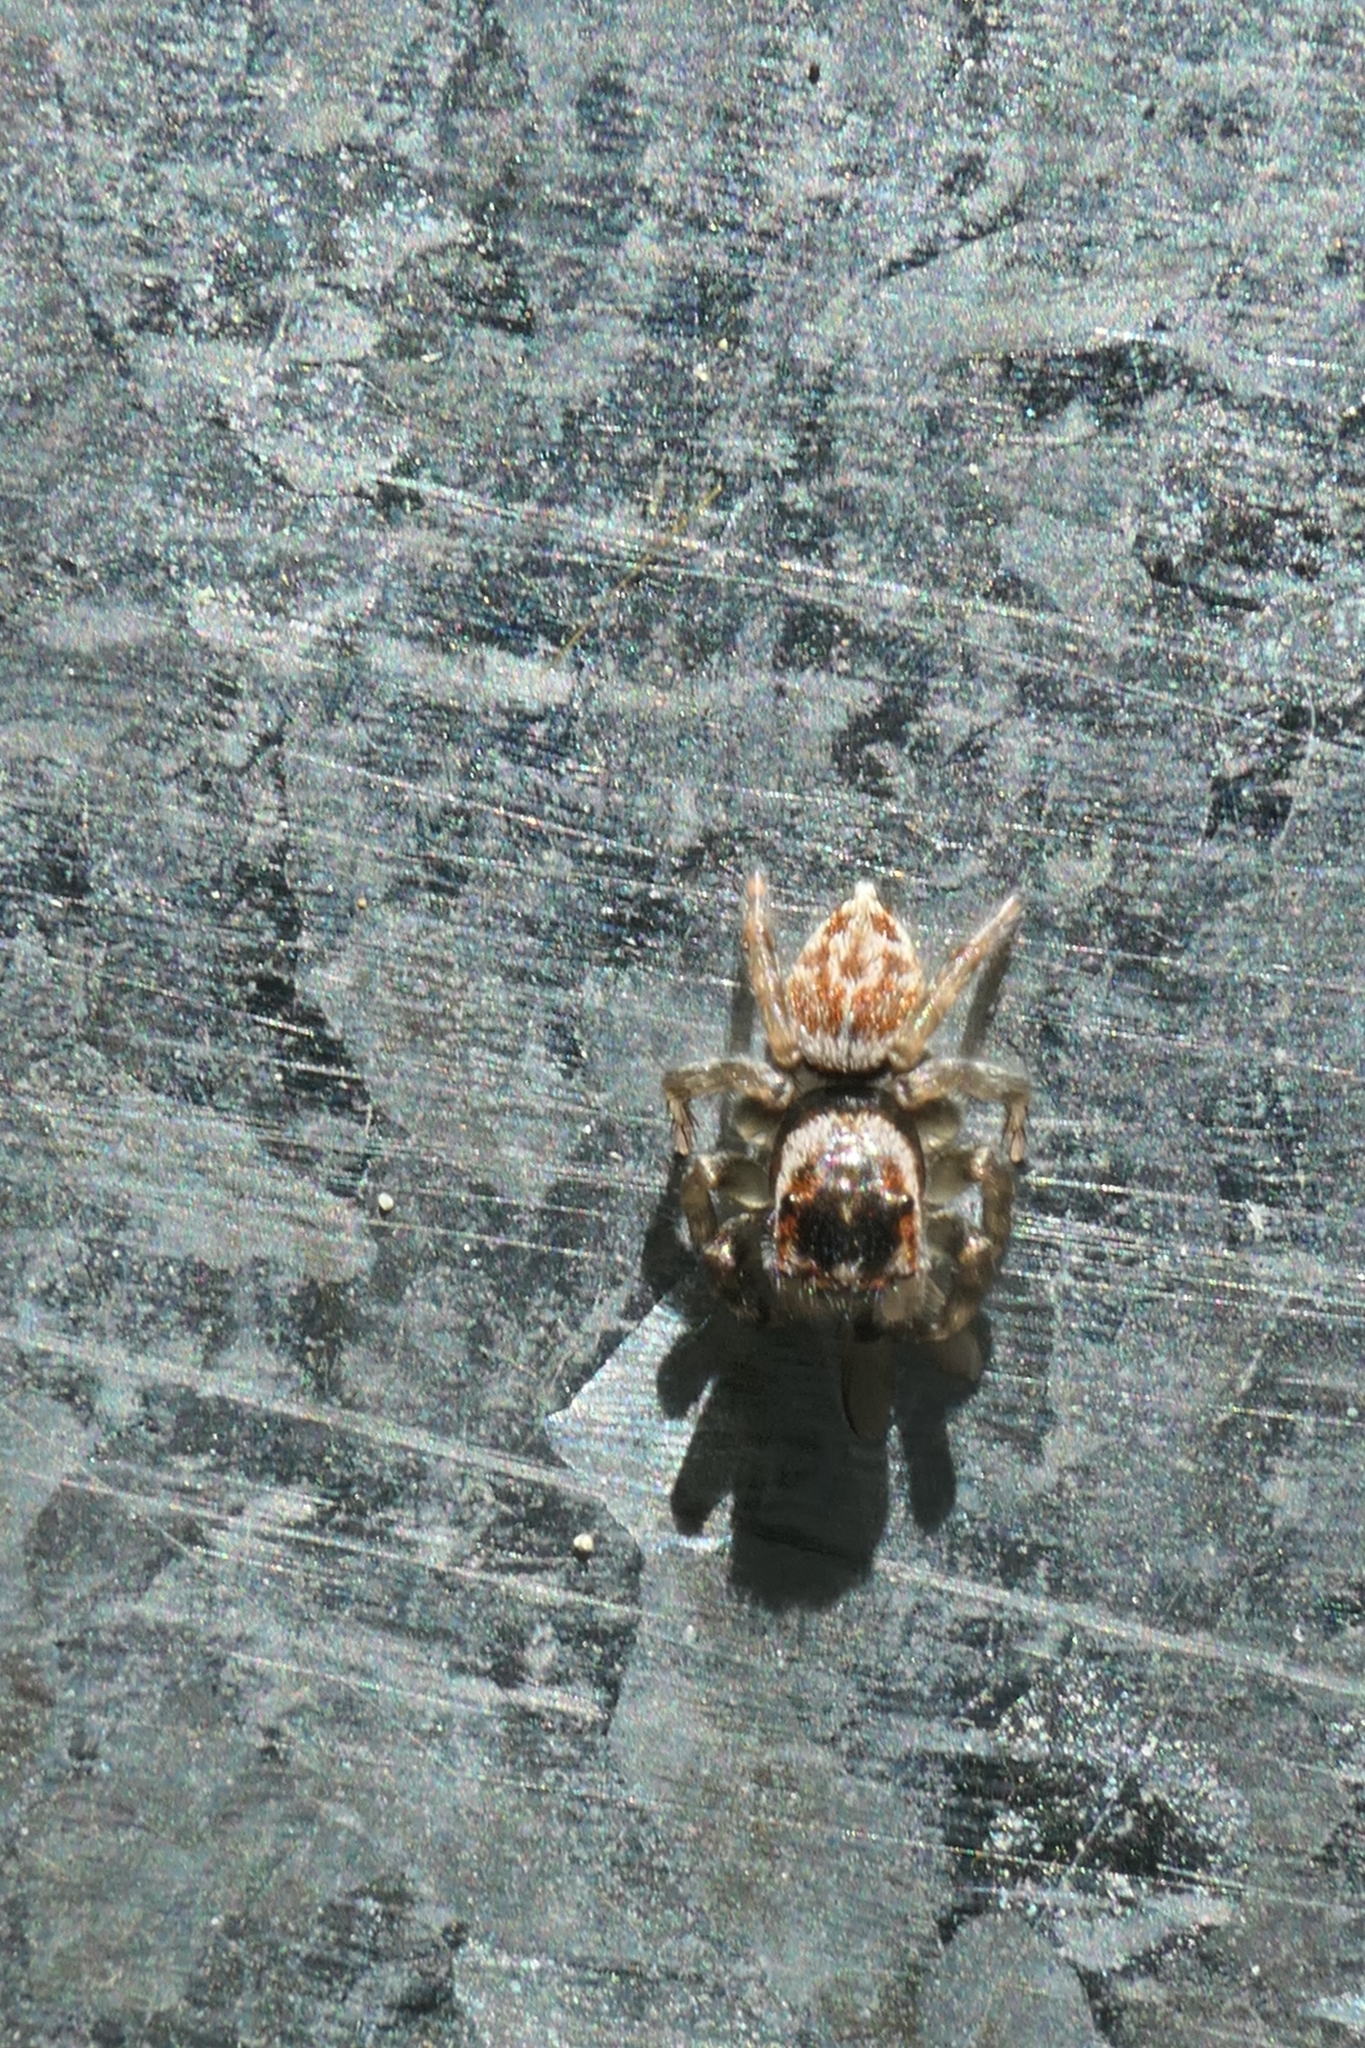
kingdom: Animalia
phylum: Arthropoda
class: Arachnida
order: Araneae
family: Salticidae
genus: Maratus
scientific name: Maratus griseus
